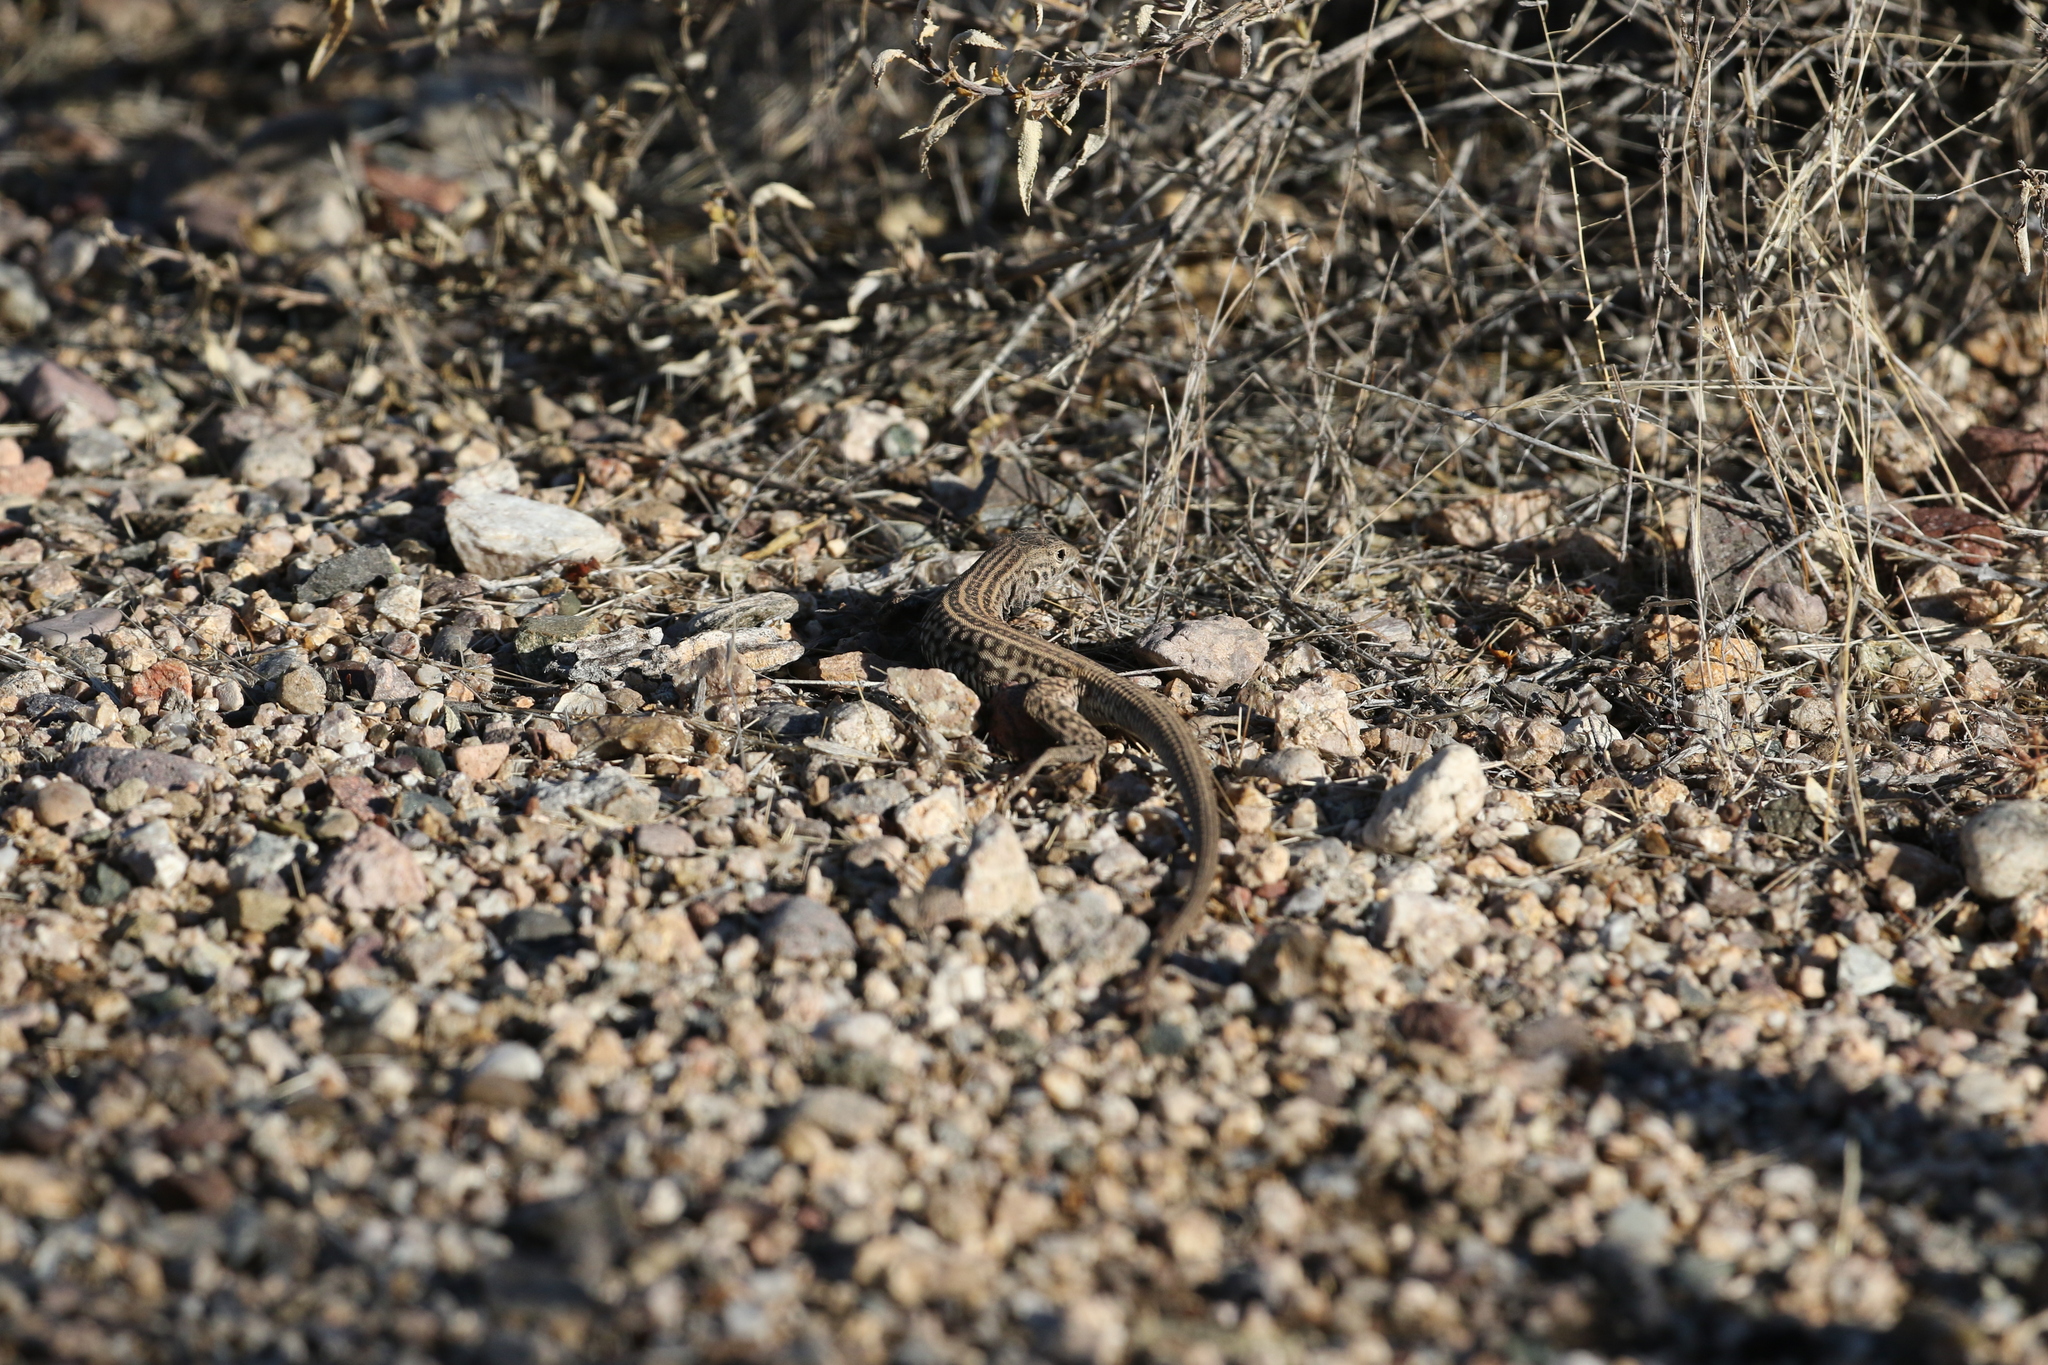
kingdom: Animalia
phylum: Chordata
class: Squamata
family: Teiidae
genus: Aspidoscelis
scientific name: Aspidoscelis tigris
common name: Tiger whiptail
